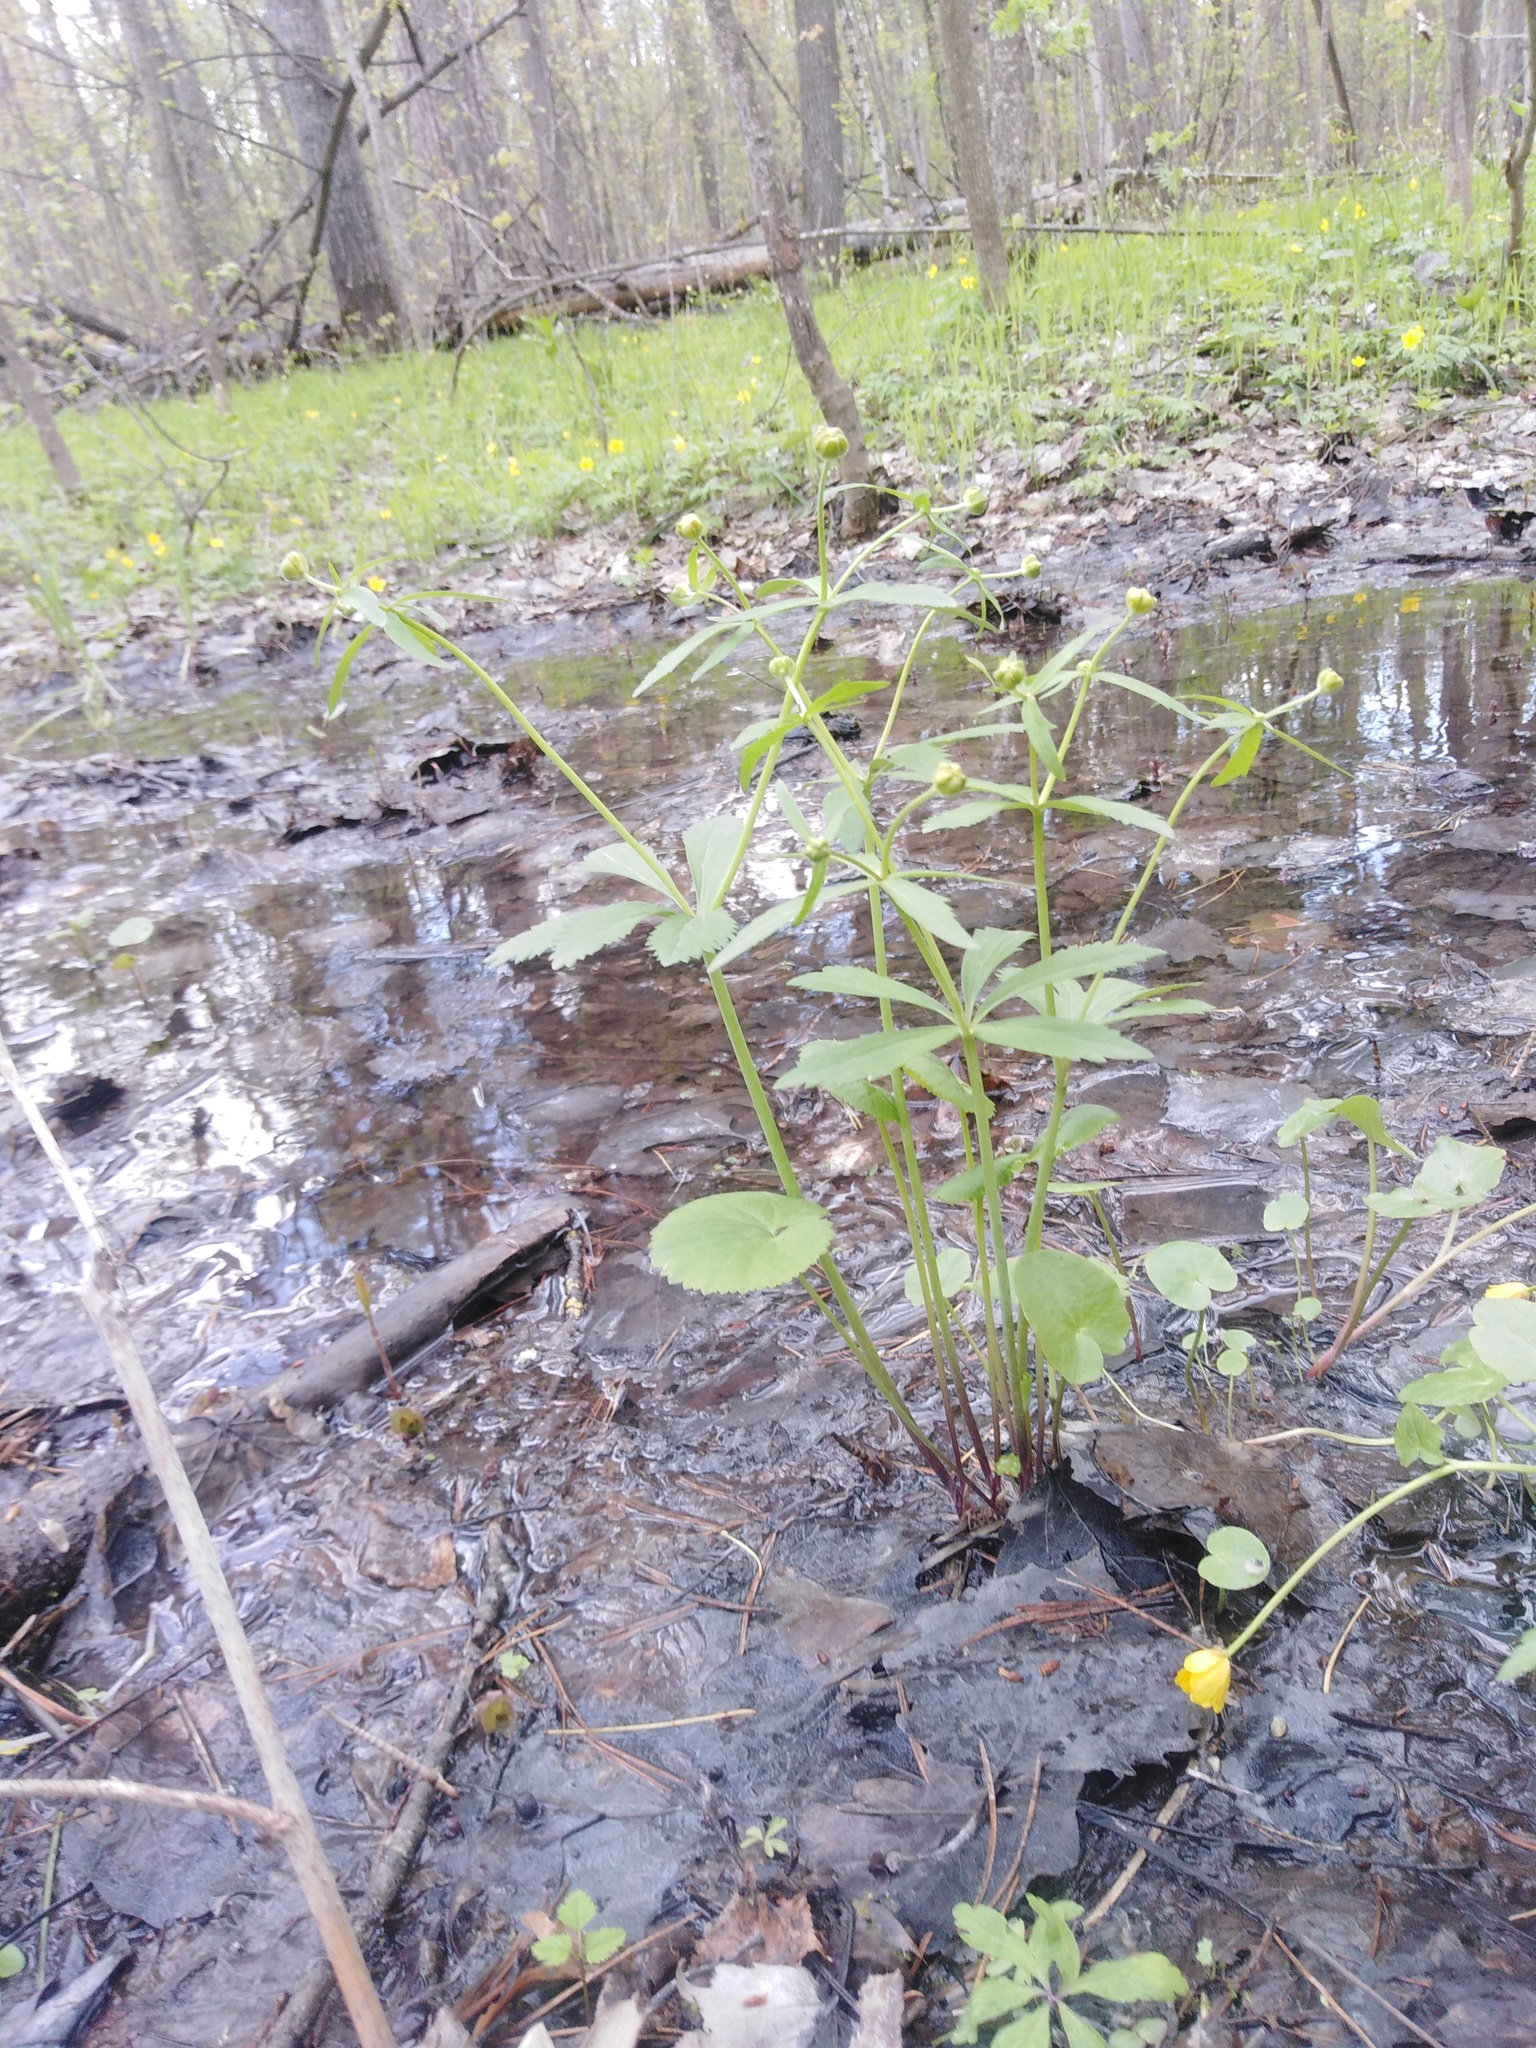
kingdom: Plantae
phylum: Tracheophyta
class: Magnoliopsida
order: Ranunculales
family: Ranunculaceae
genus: Ranunculus
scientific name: Ranunculus cassubicus
